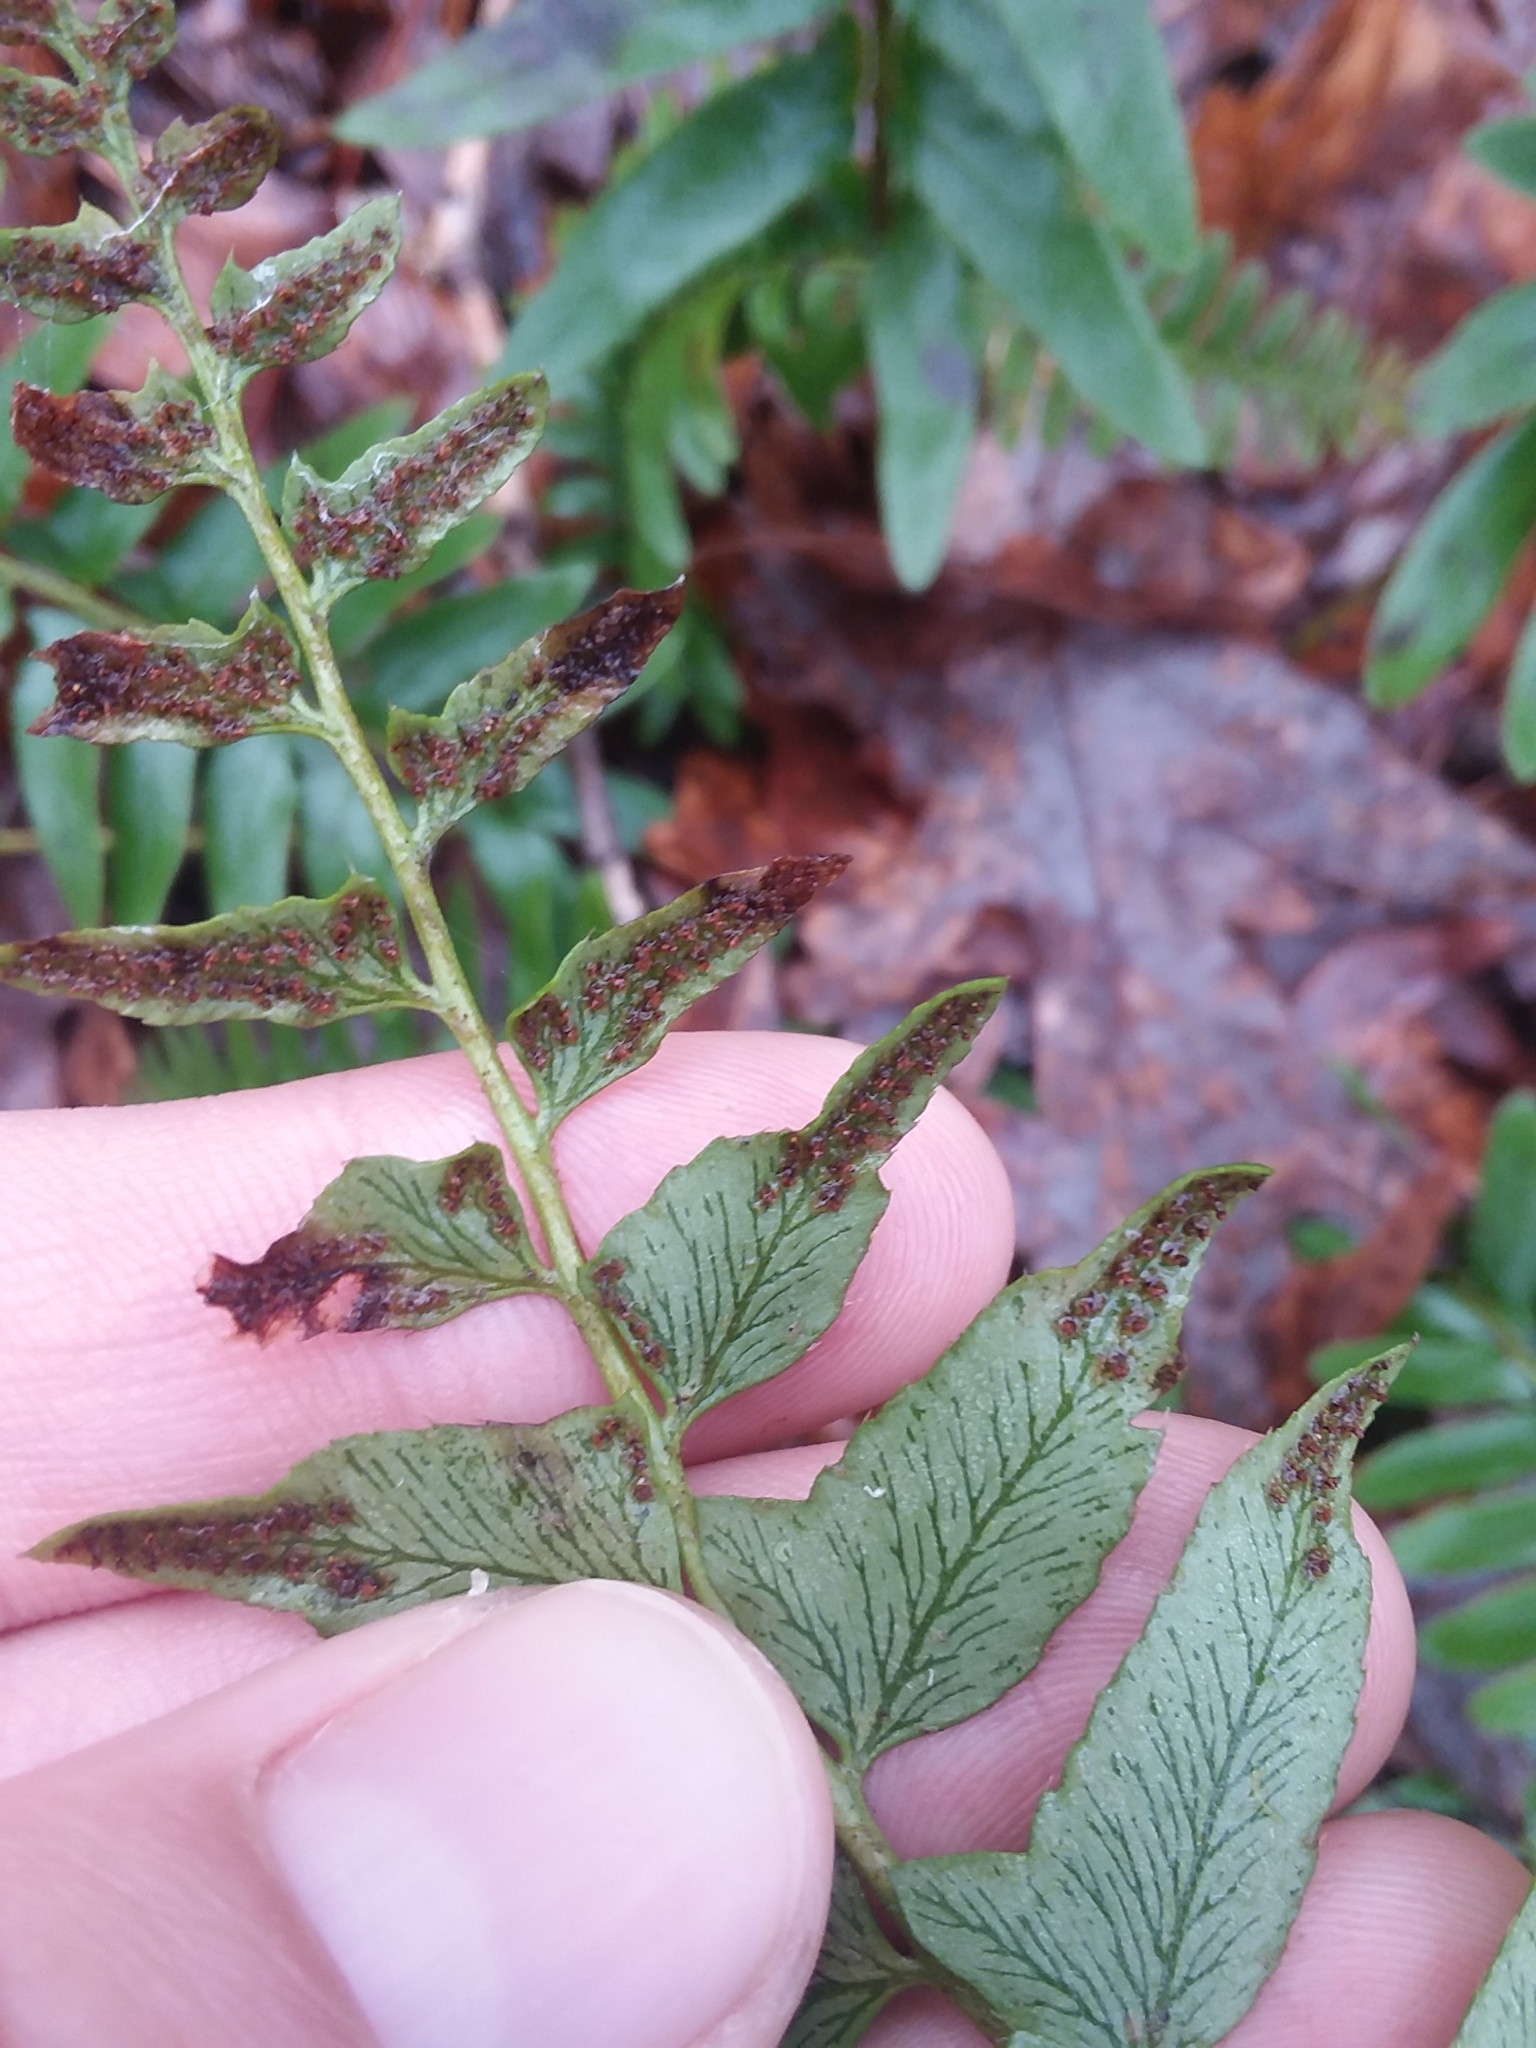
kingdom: Plantae
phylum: Tracheophyta
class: Polypodiopsida
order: Polypodiales
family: Dryopteridaceae
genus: Polystichum
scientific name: Polystichum acrostichoides
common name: Christmas fern
